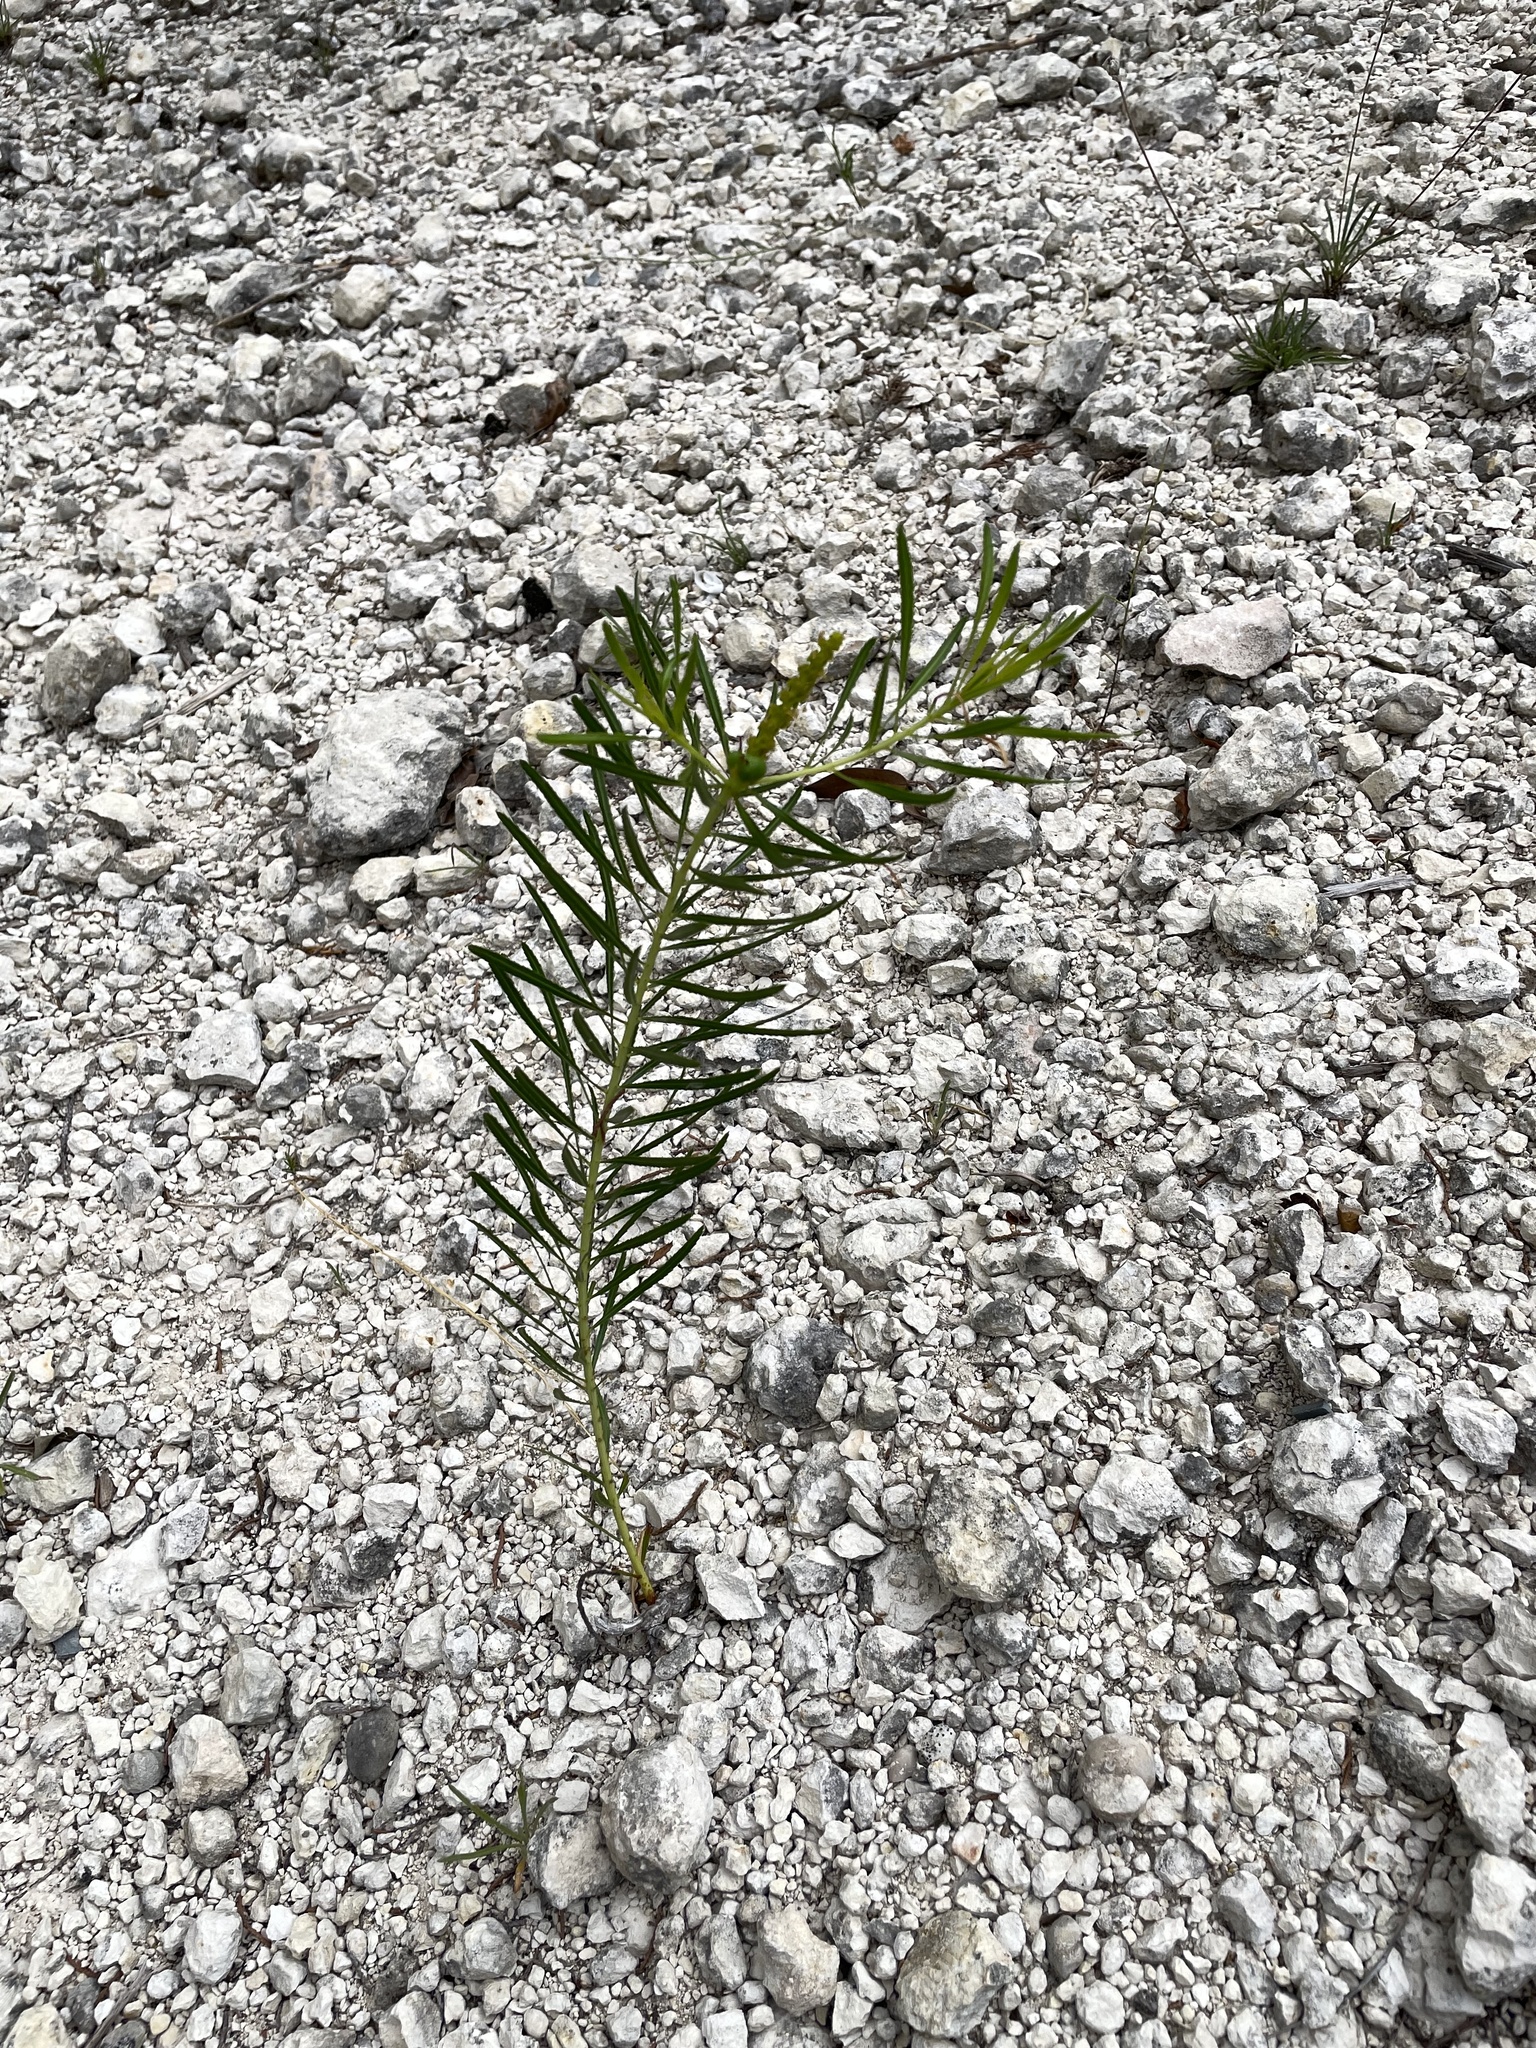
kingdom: Plantae
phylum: Tracheophyta
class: Magnoliopsida
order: Malpighiales
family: Euphorbiaceae
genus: Stillingia
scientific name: Stillingia texana
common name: Texas stillingia
